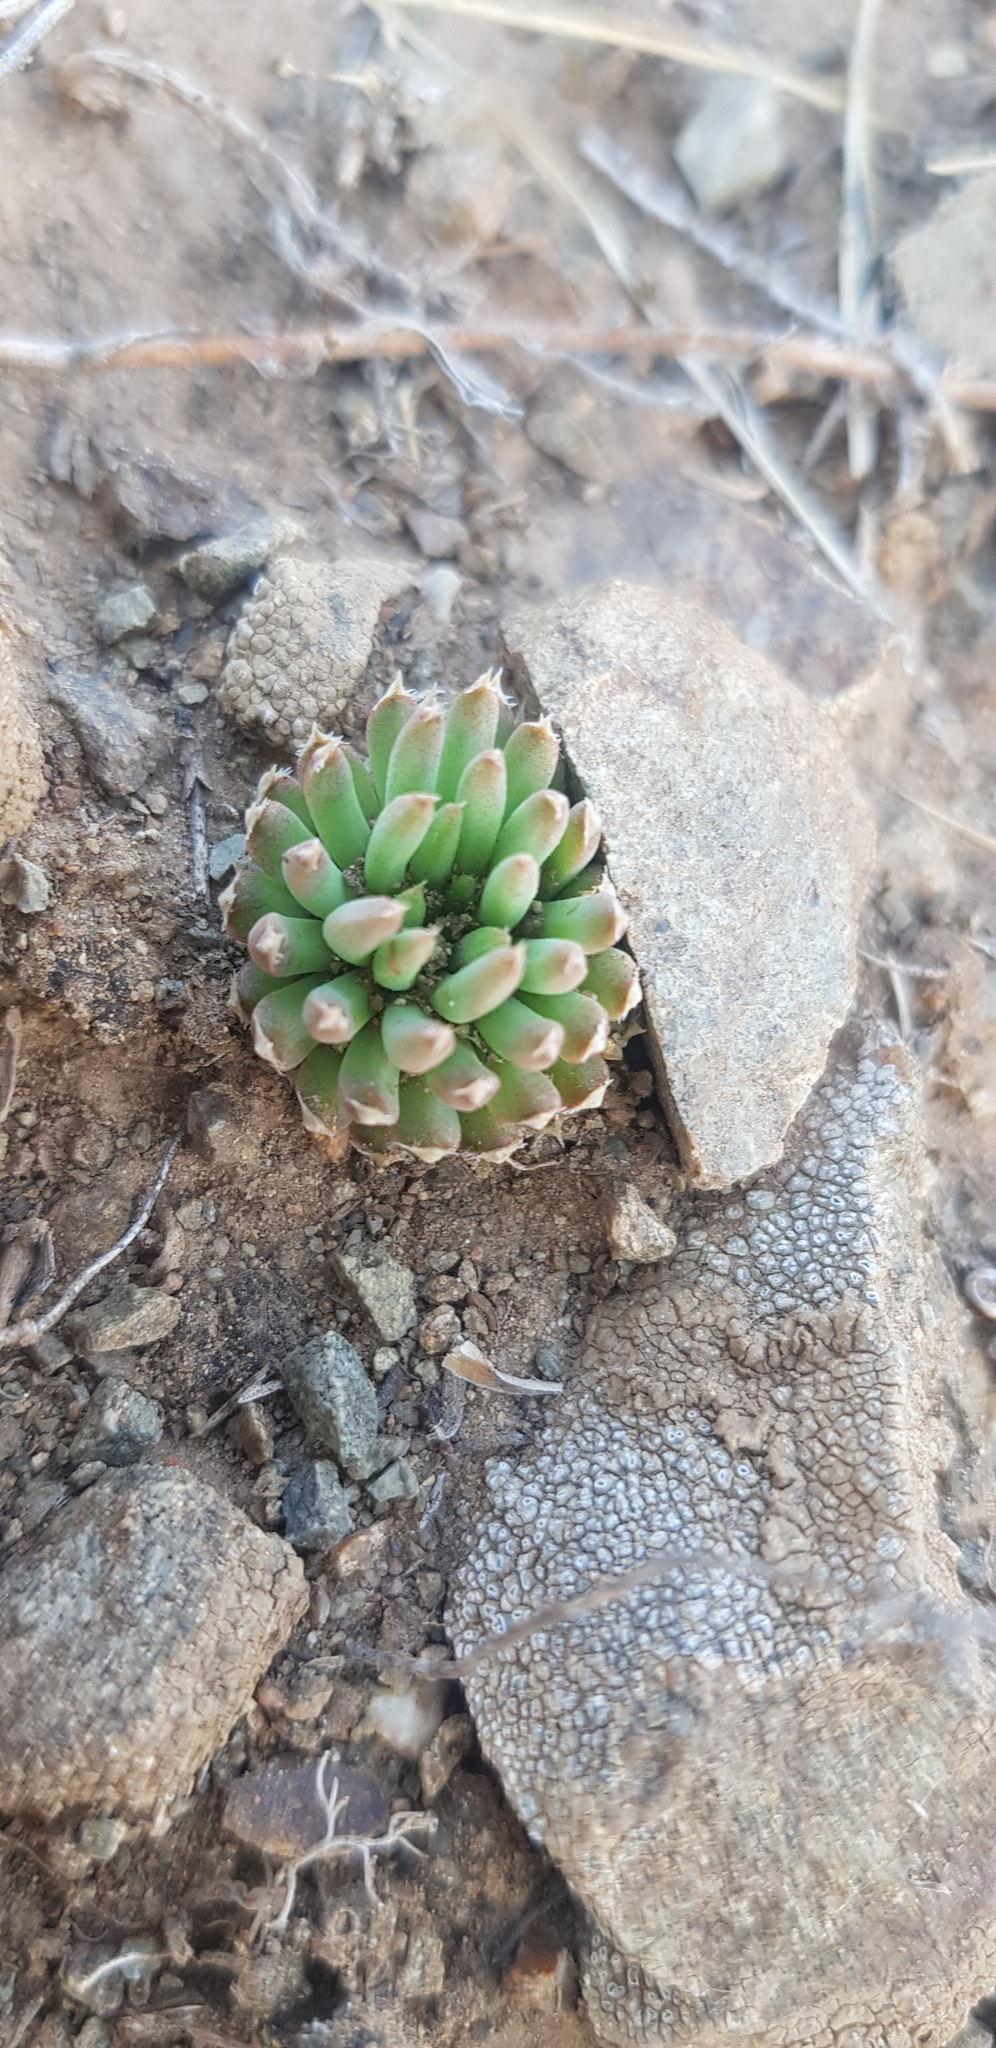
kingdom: Plantae
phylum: Tracheophyta
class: Magnoliopsida
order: Saxifragales
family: Crassulaceae
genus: Orostachys
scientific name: Orostachys spinosa
